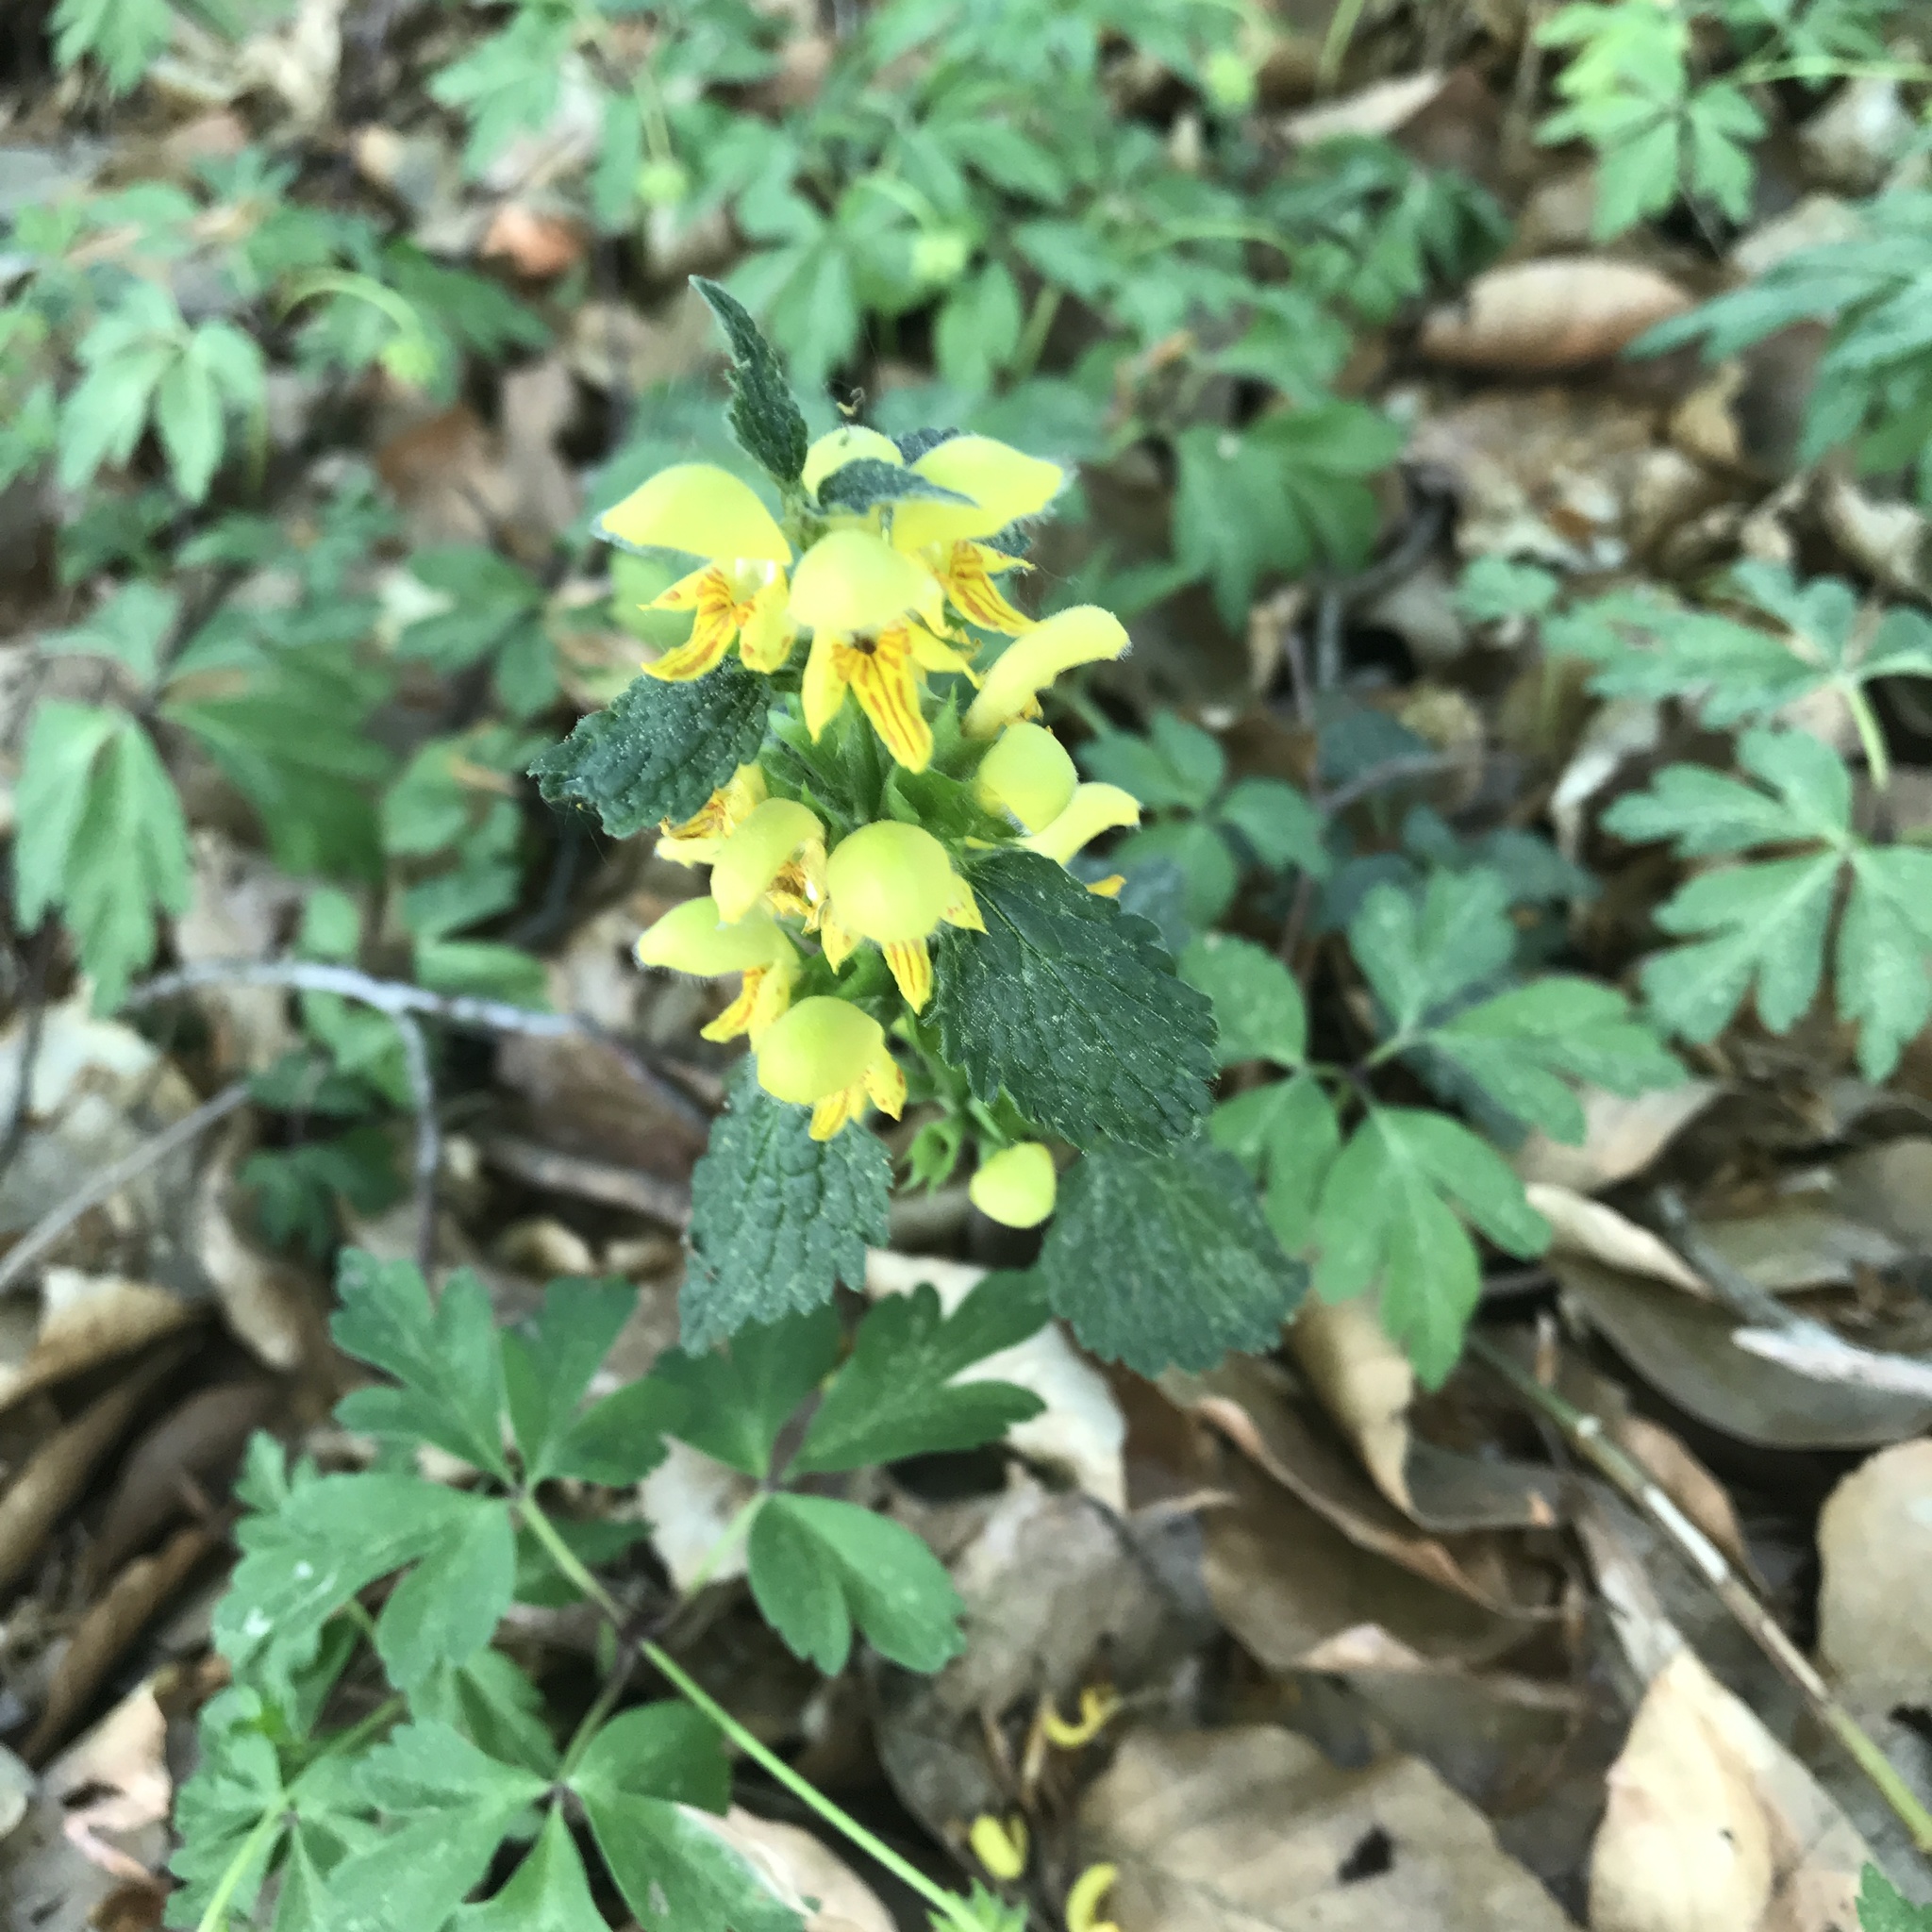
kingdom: Plantae
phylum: Tracheophyta
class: Magnoliopsida
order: Lamiales
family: Lamiaceae
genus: Lamium
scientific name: Lamium galeobdolon
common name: Yellow archangel
